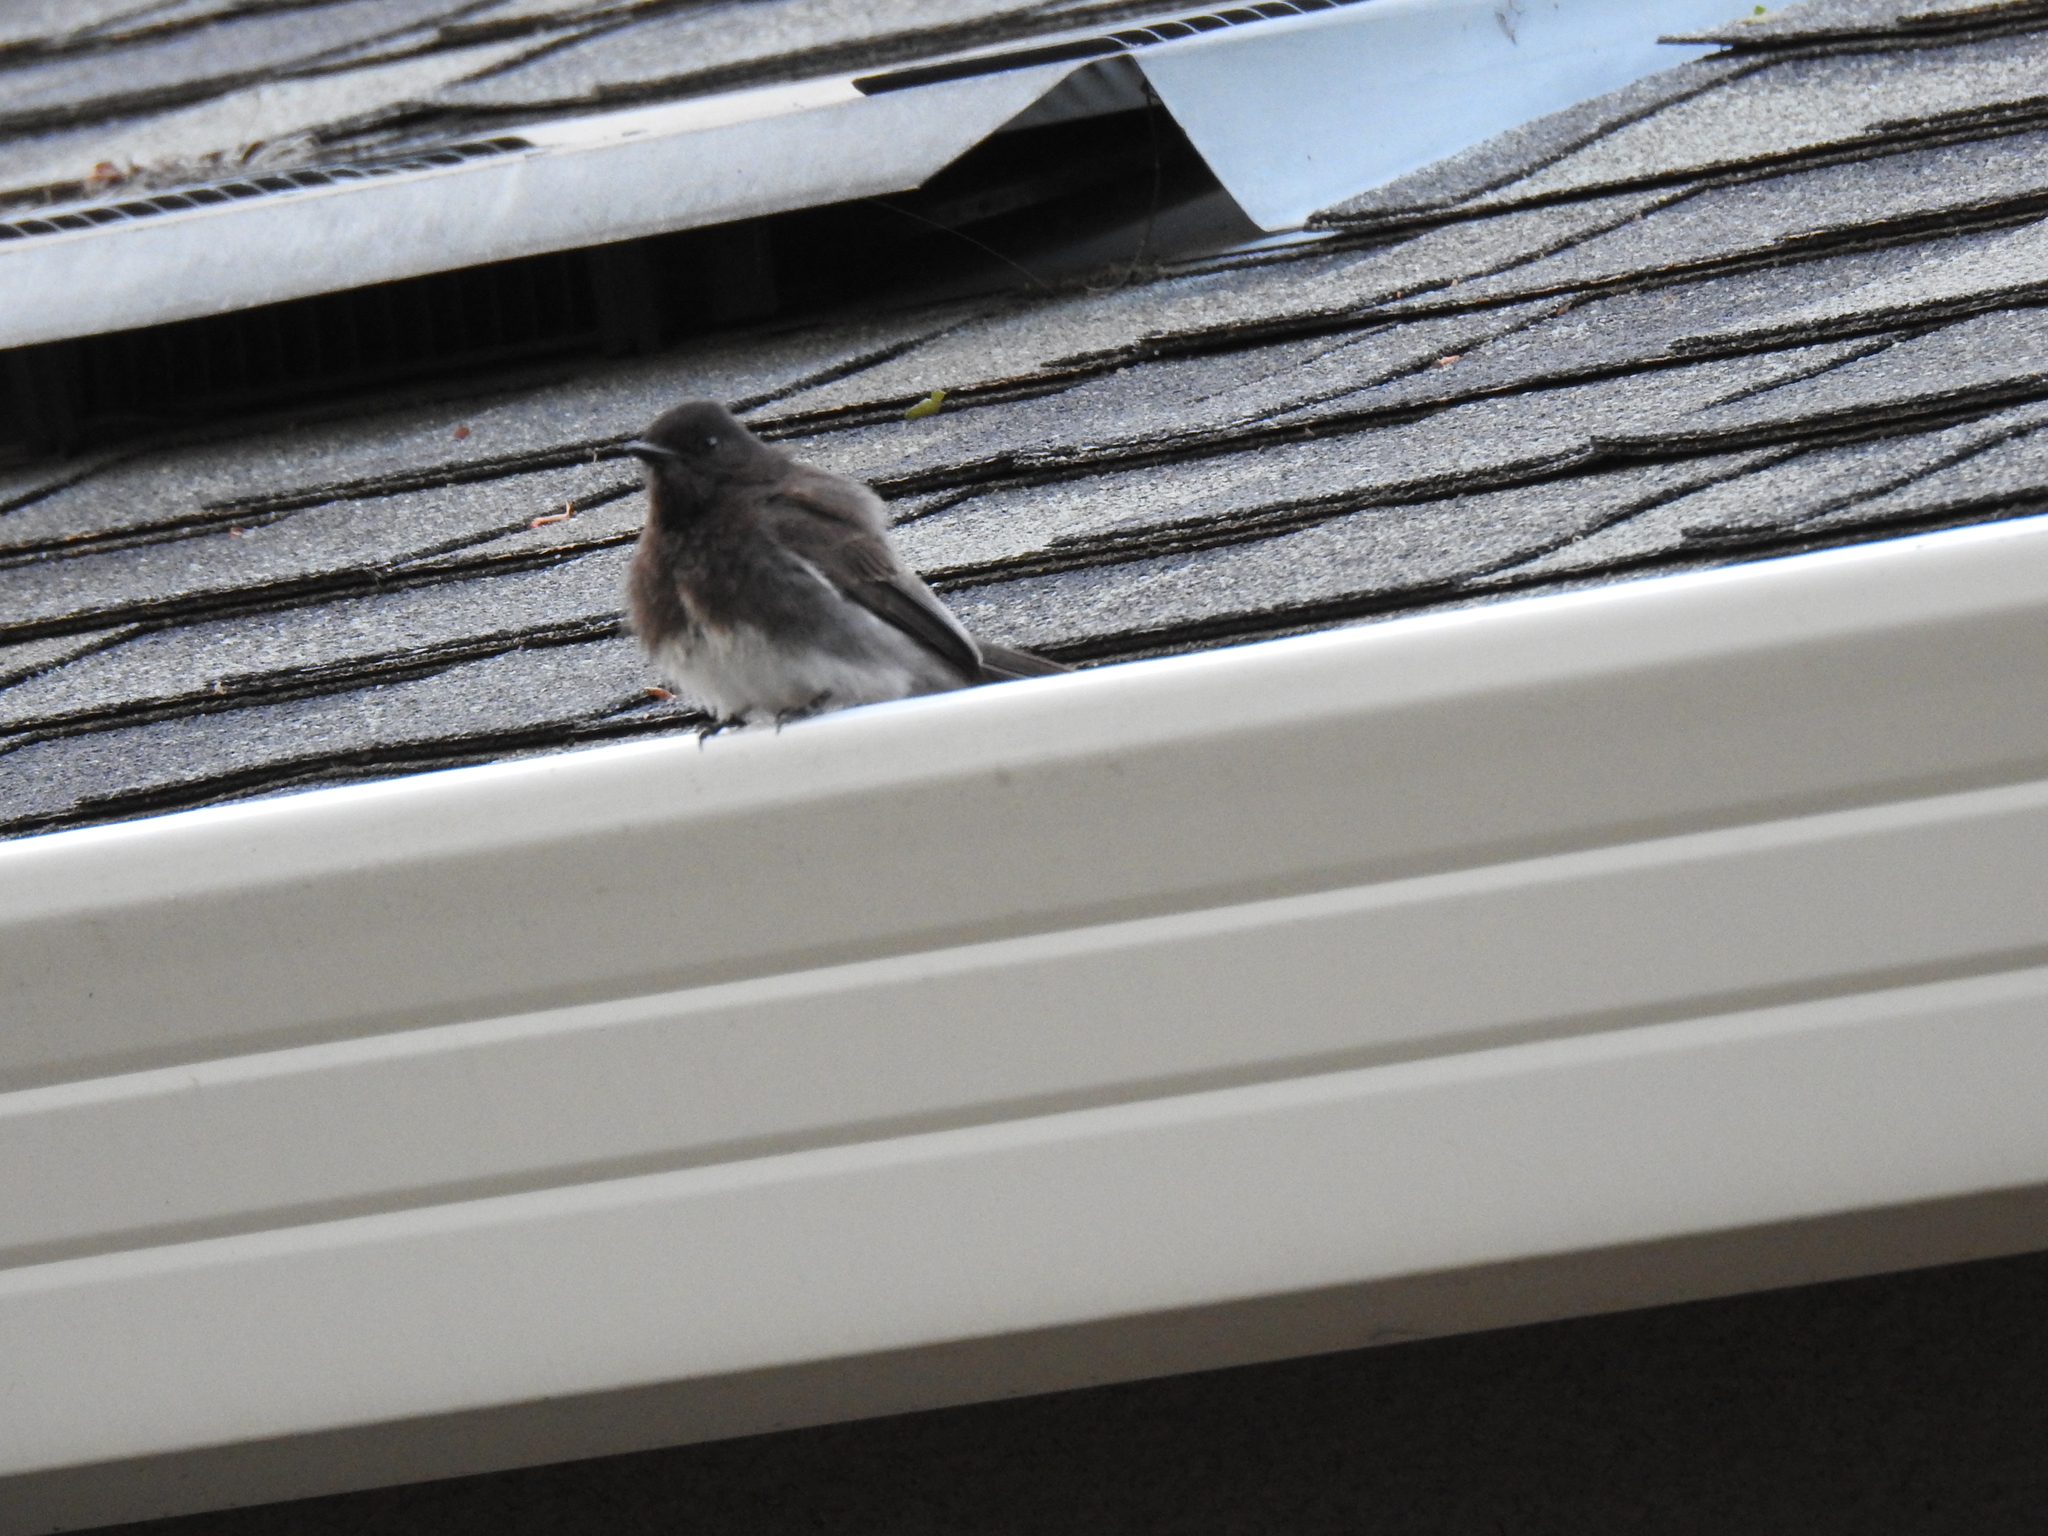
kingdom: Animalia
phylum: Chordata
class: Aves
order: Passeriformes
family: Tyrannidae
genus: Sayornis
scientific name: Sayornis nigricans
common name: Black phoebe
